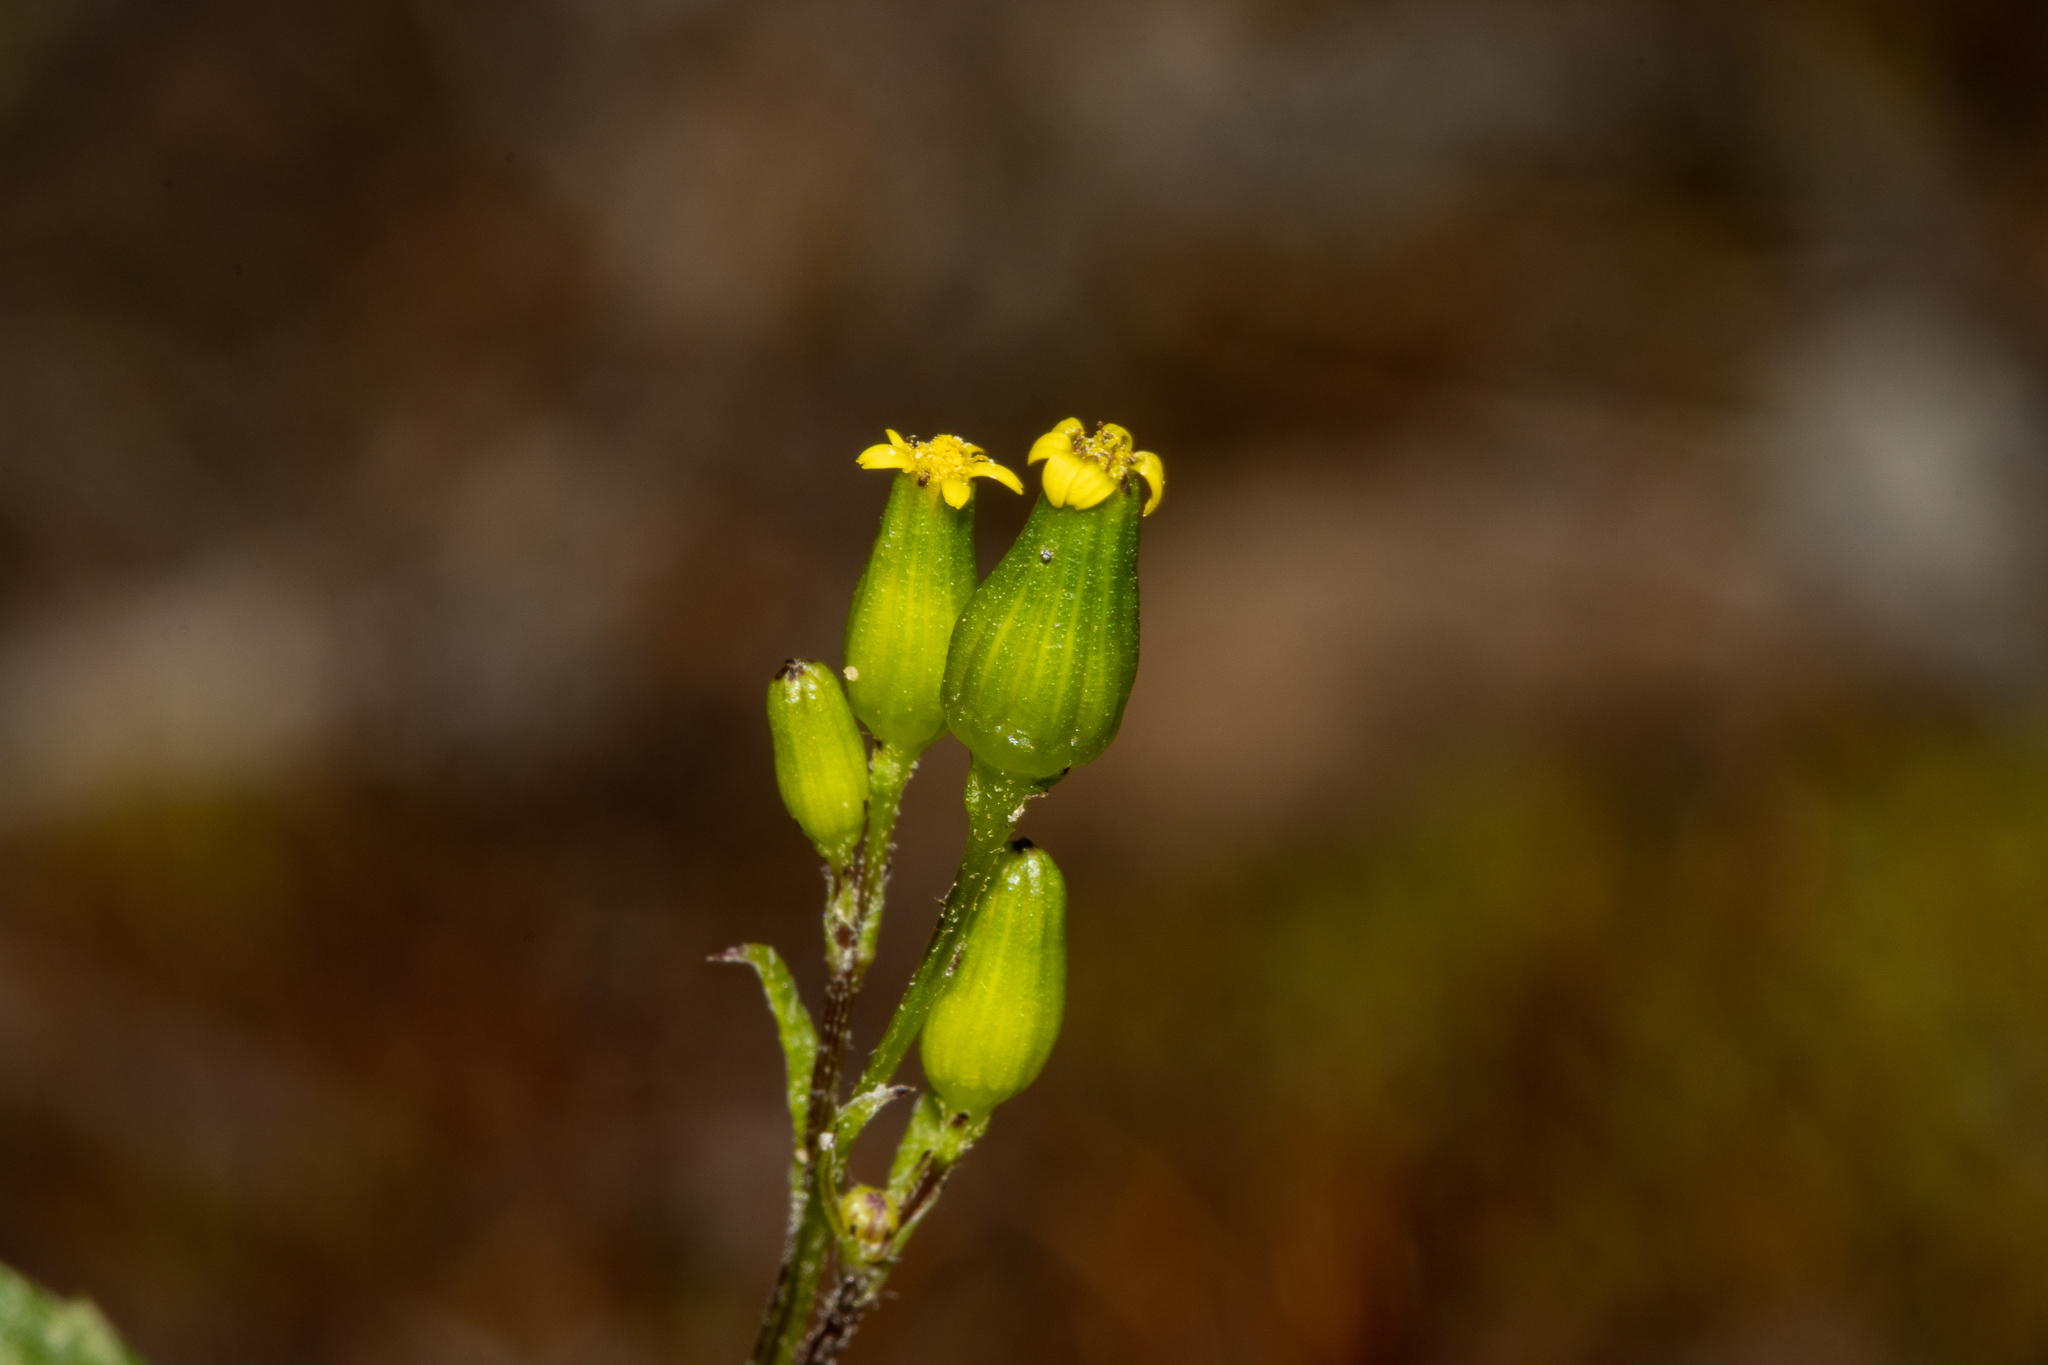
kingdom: Plantae
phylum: Tracheophyta
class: Magnoliopsida
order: Asterales
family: Asteraceae
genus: Senecio
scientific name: Senecio glossanthus
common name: Slender groundsel
